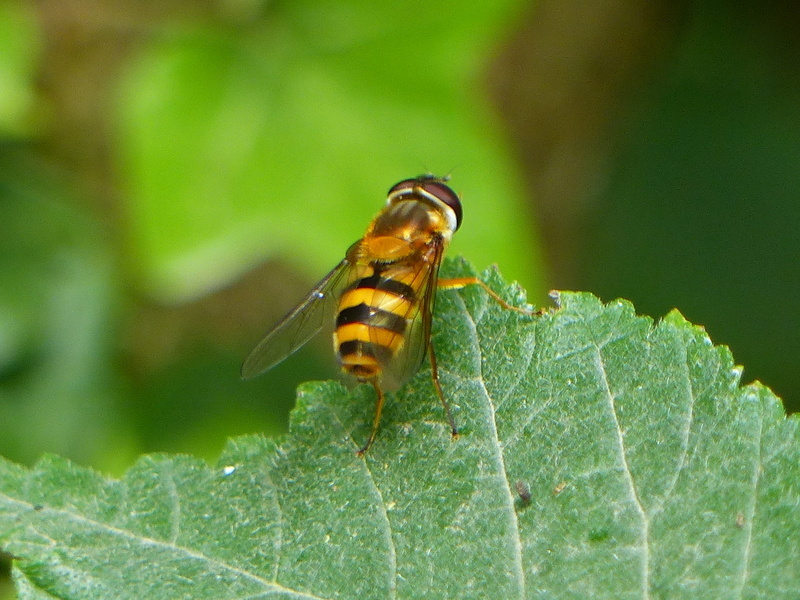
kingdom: Animalia
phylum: Arthropoda
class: Insecta
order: Diptera
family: Syrphidae
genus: Epistrophe
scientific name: Epistrophe grossulariae
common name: Black-horned smoothtail
